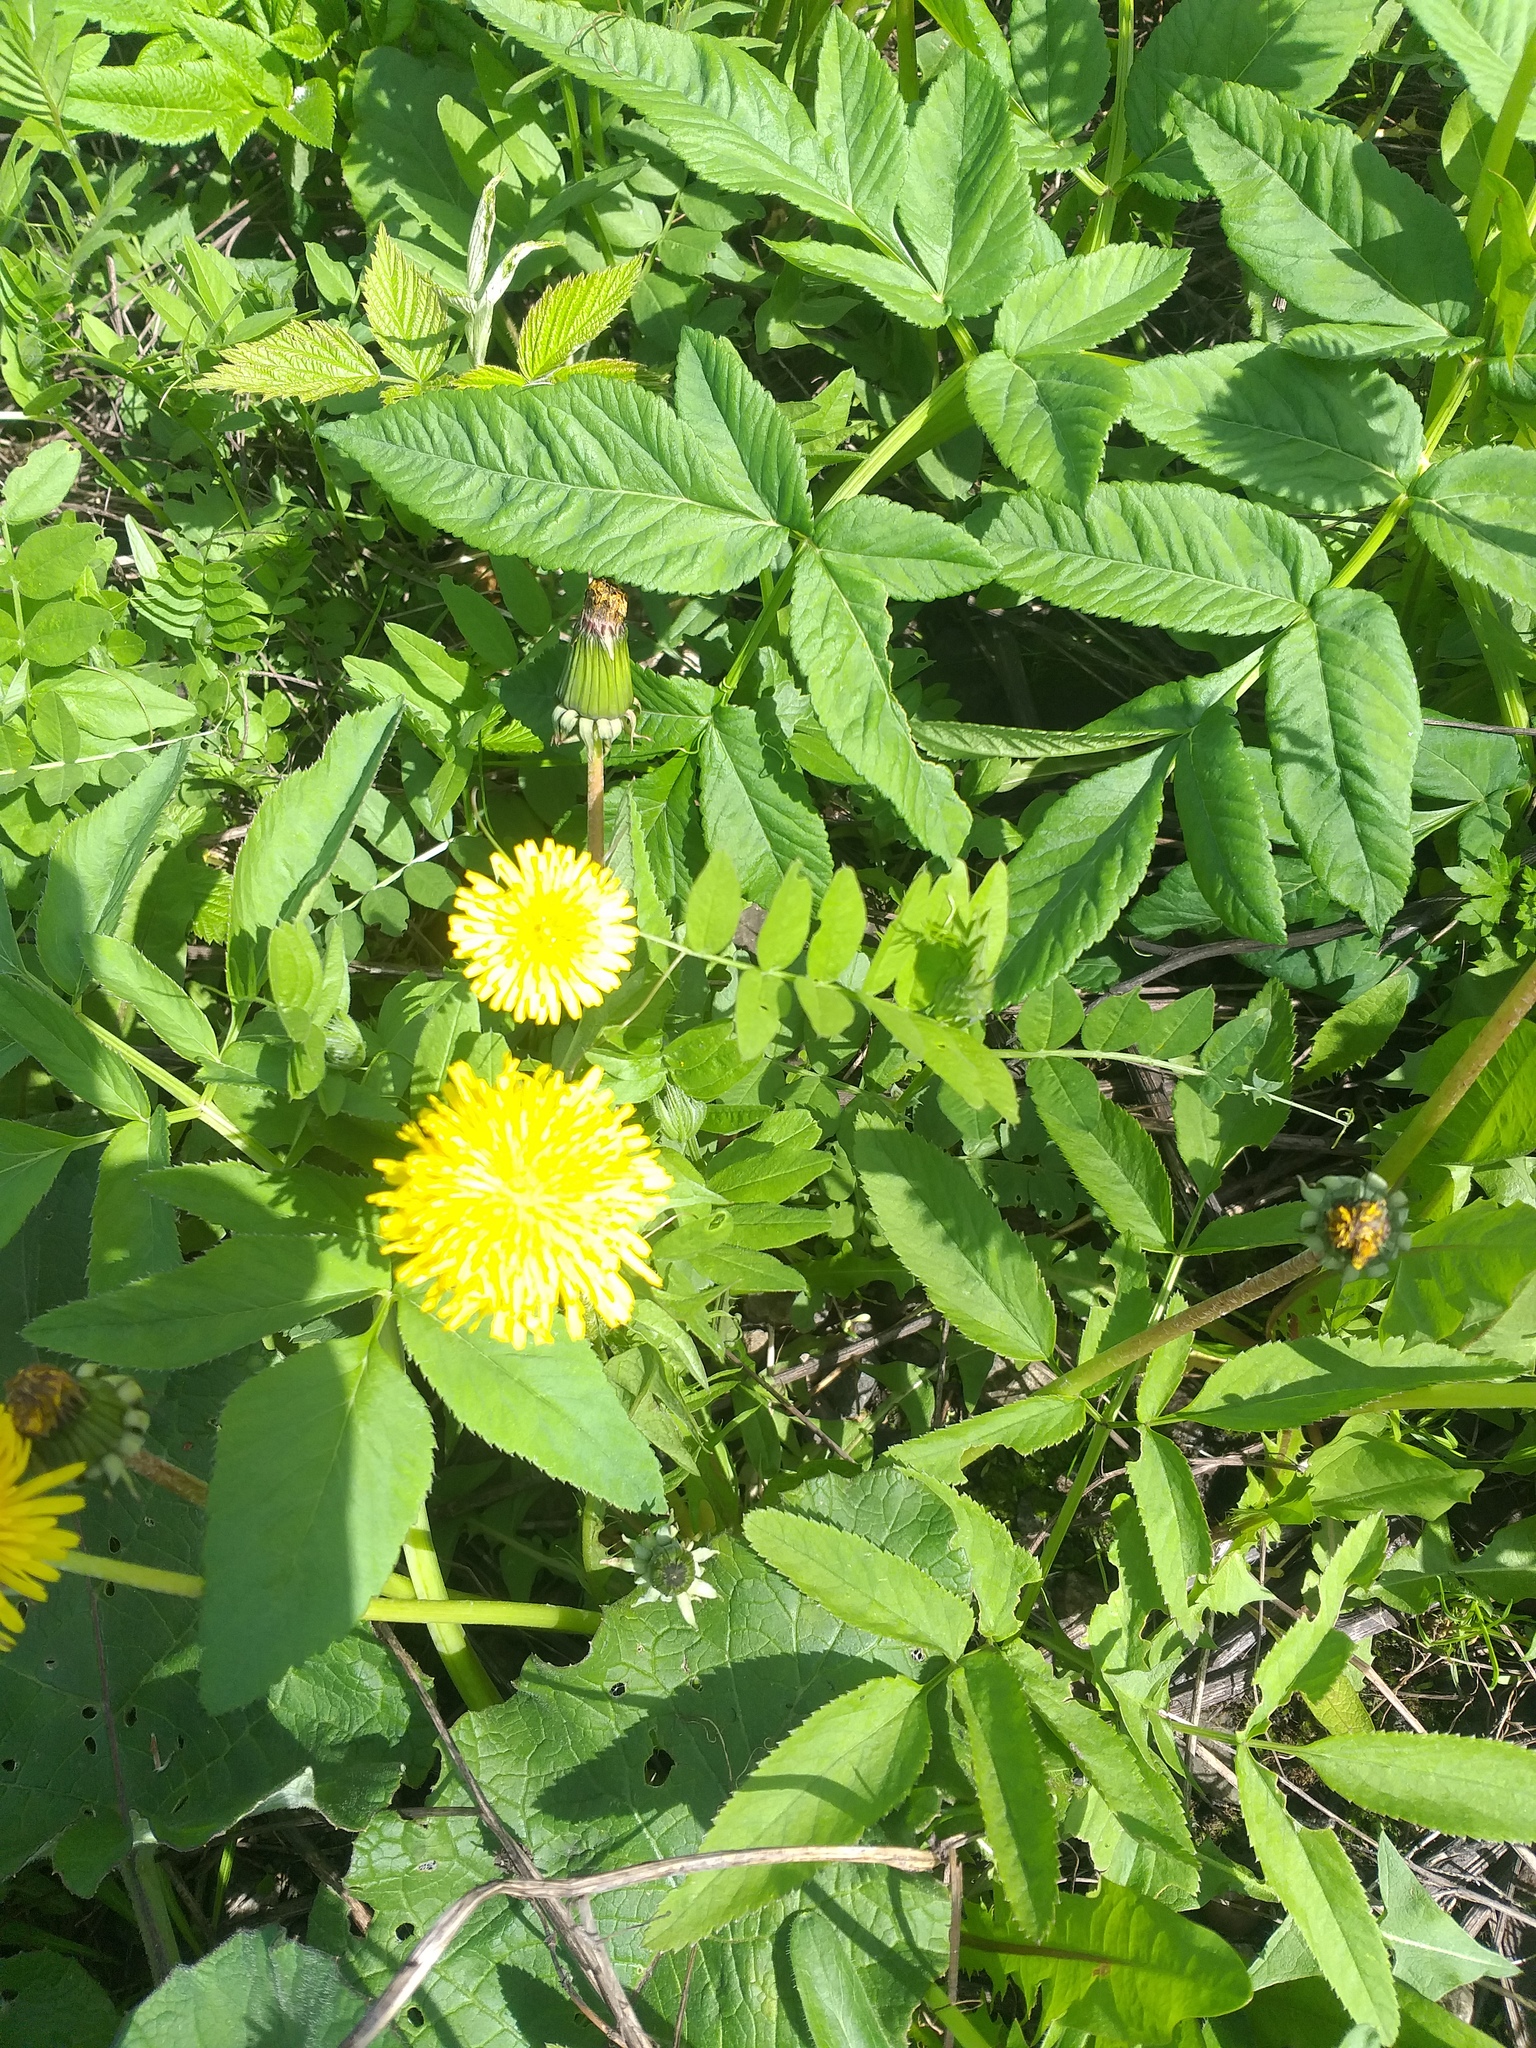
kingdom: Plantae
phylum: Tracheophyta
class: Magnoliopsida
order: Fabales
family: Fabaceae
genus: Vicia
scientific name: Vicia sepium
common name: Bush vetch
